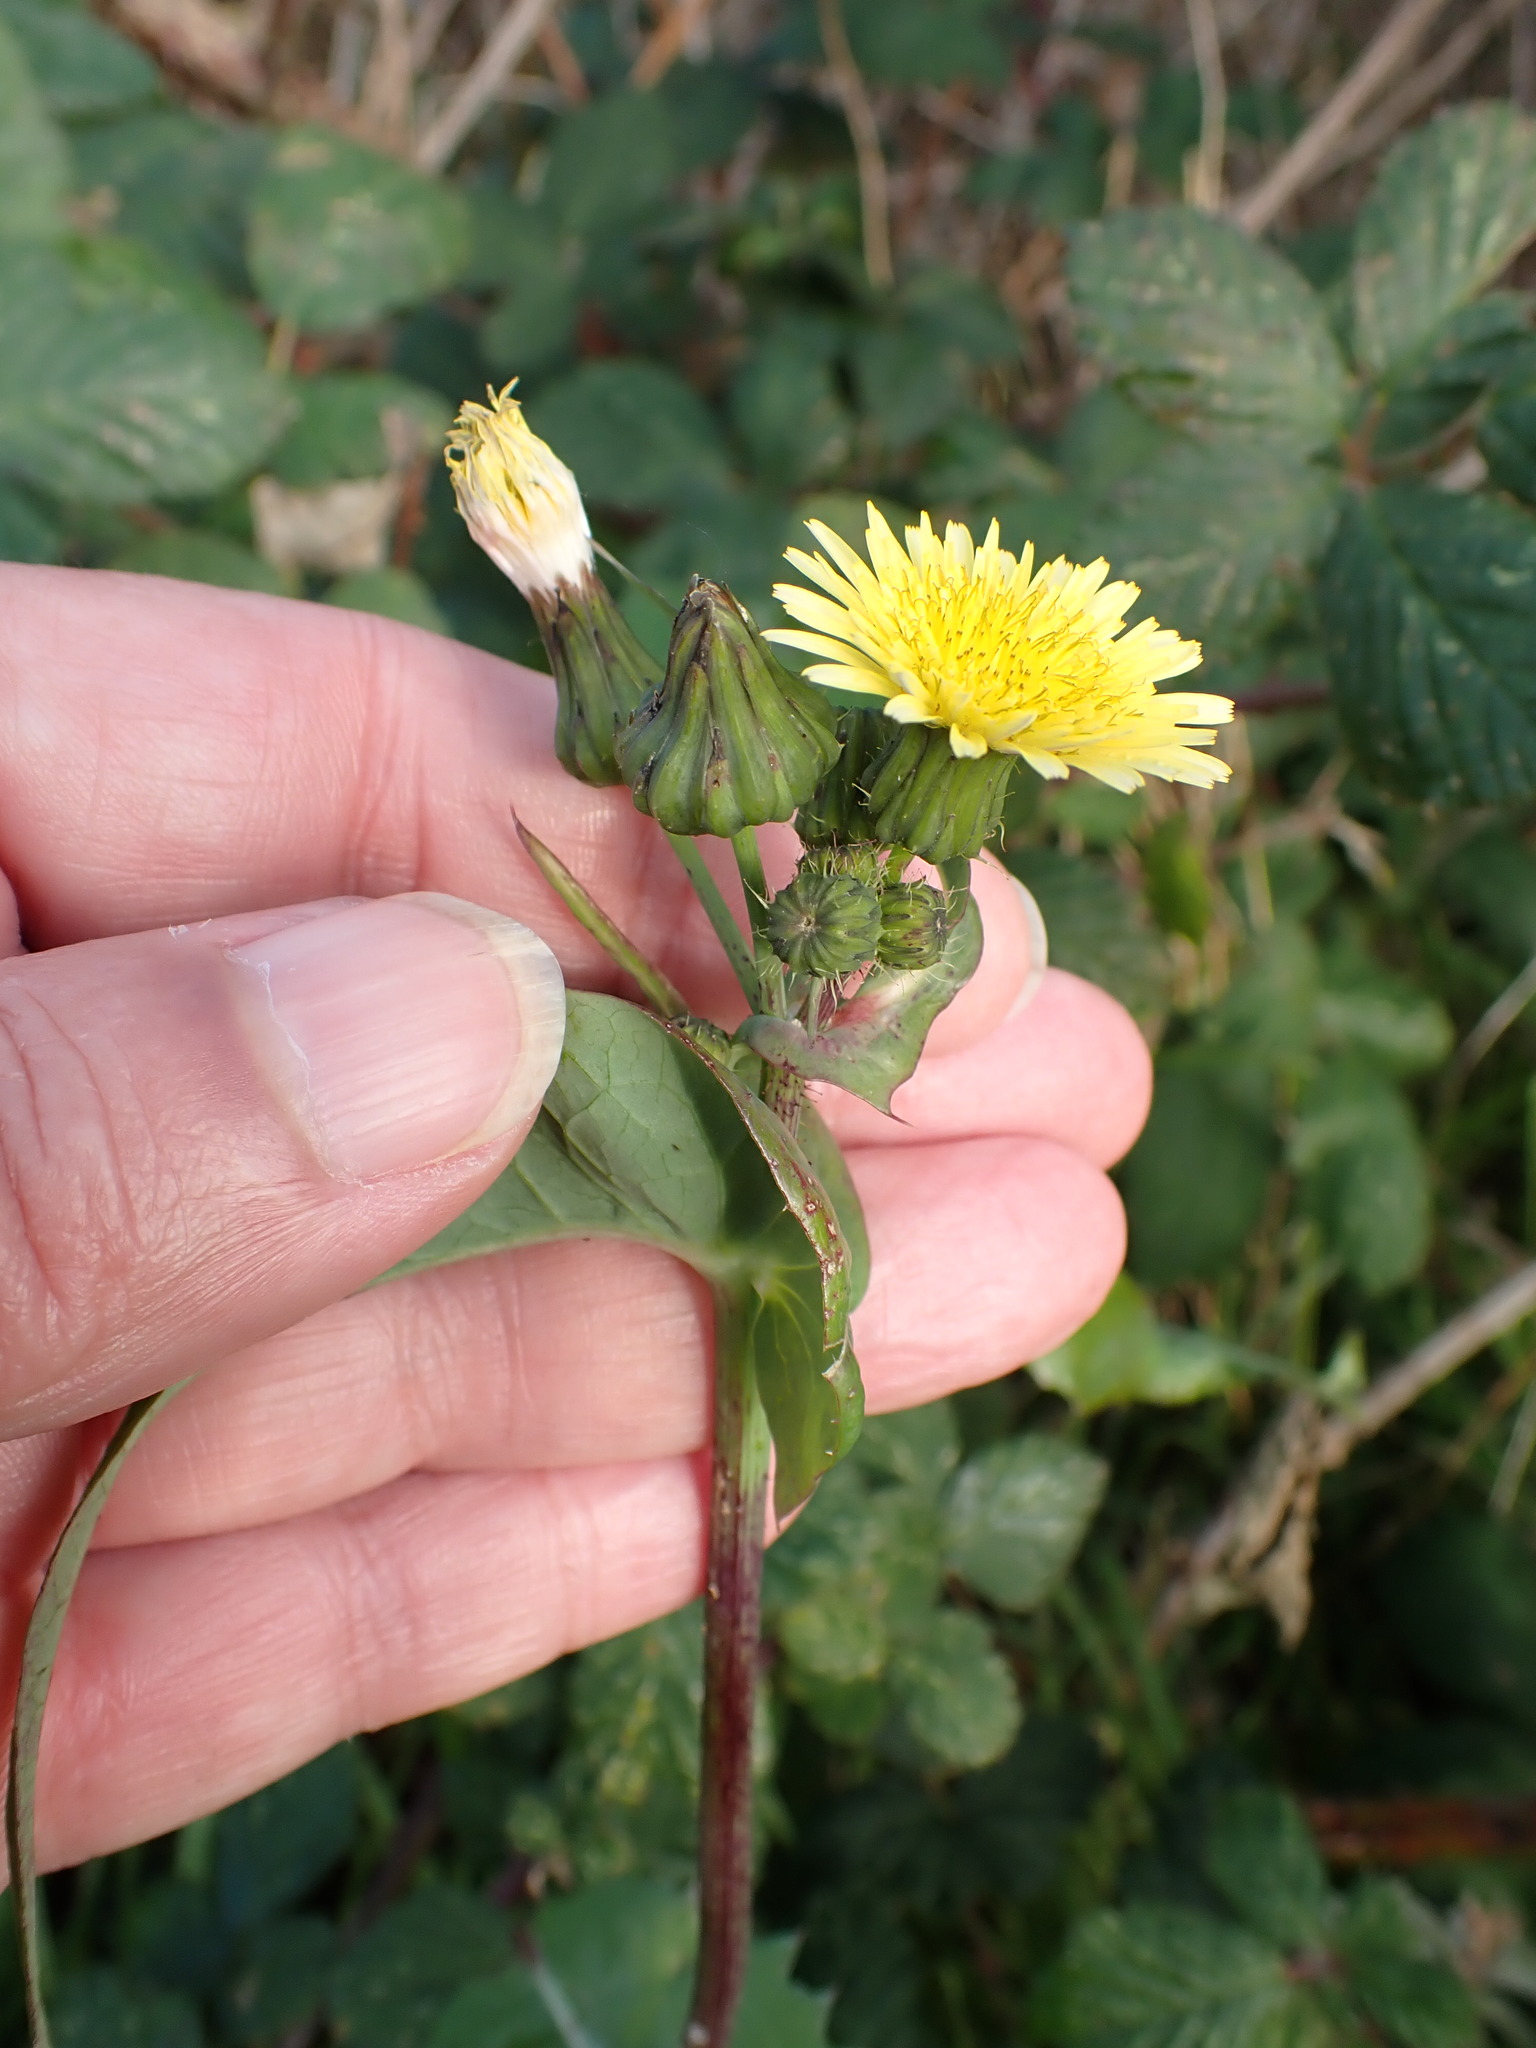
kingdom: Plantae
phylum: Tracheophyta
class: Magnoliopsida
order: Asterales
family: Asteraceae
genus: Sonchus
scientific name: Sonchus oleraceus
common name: Common sowthistle
